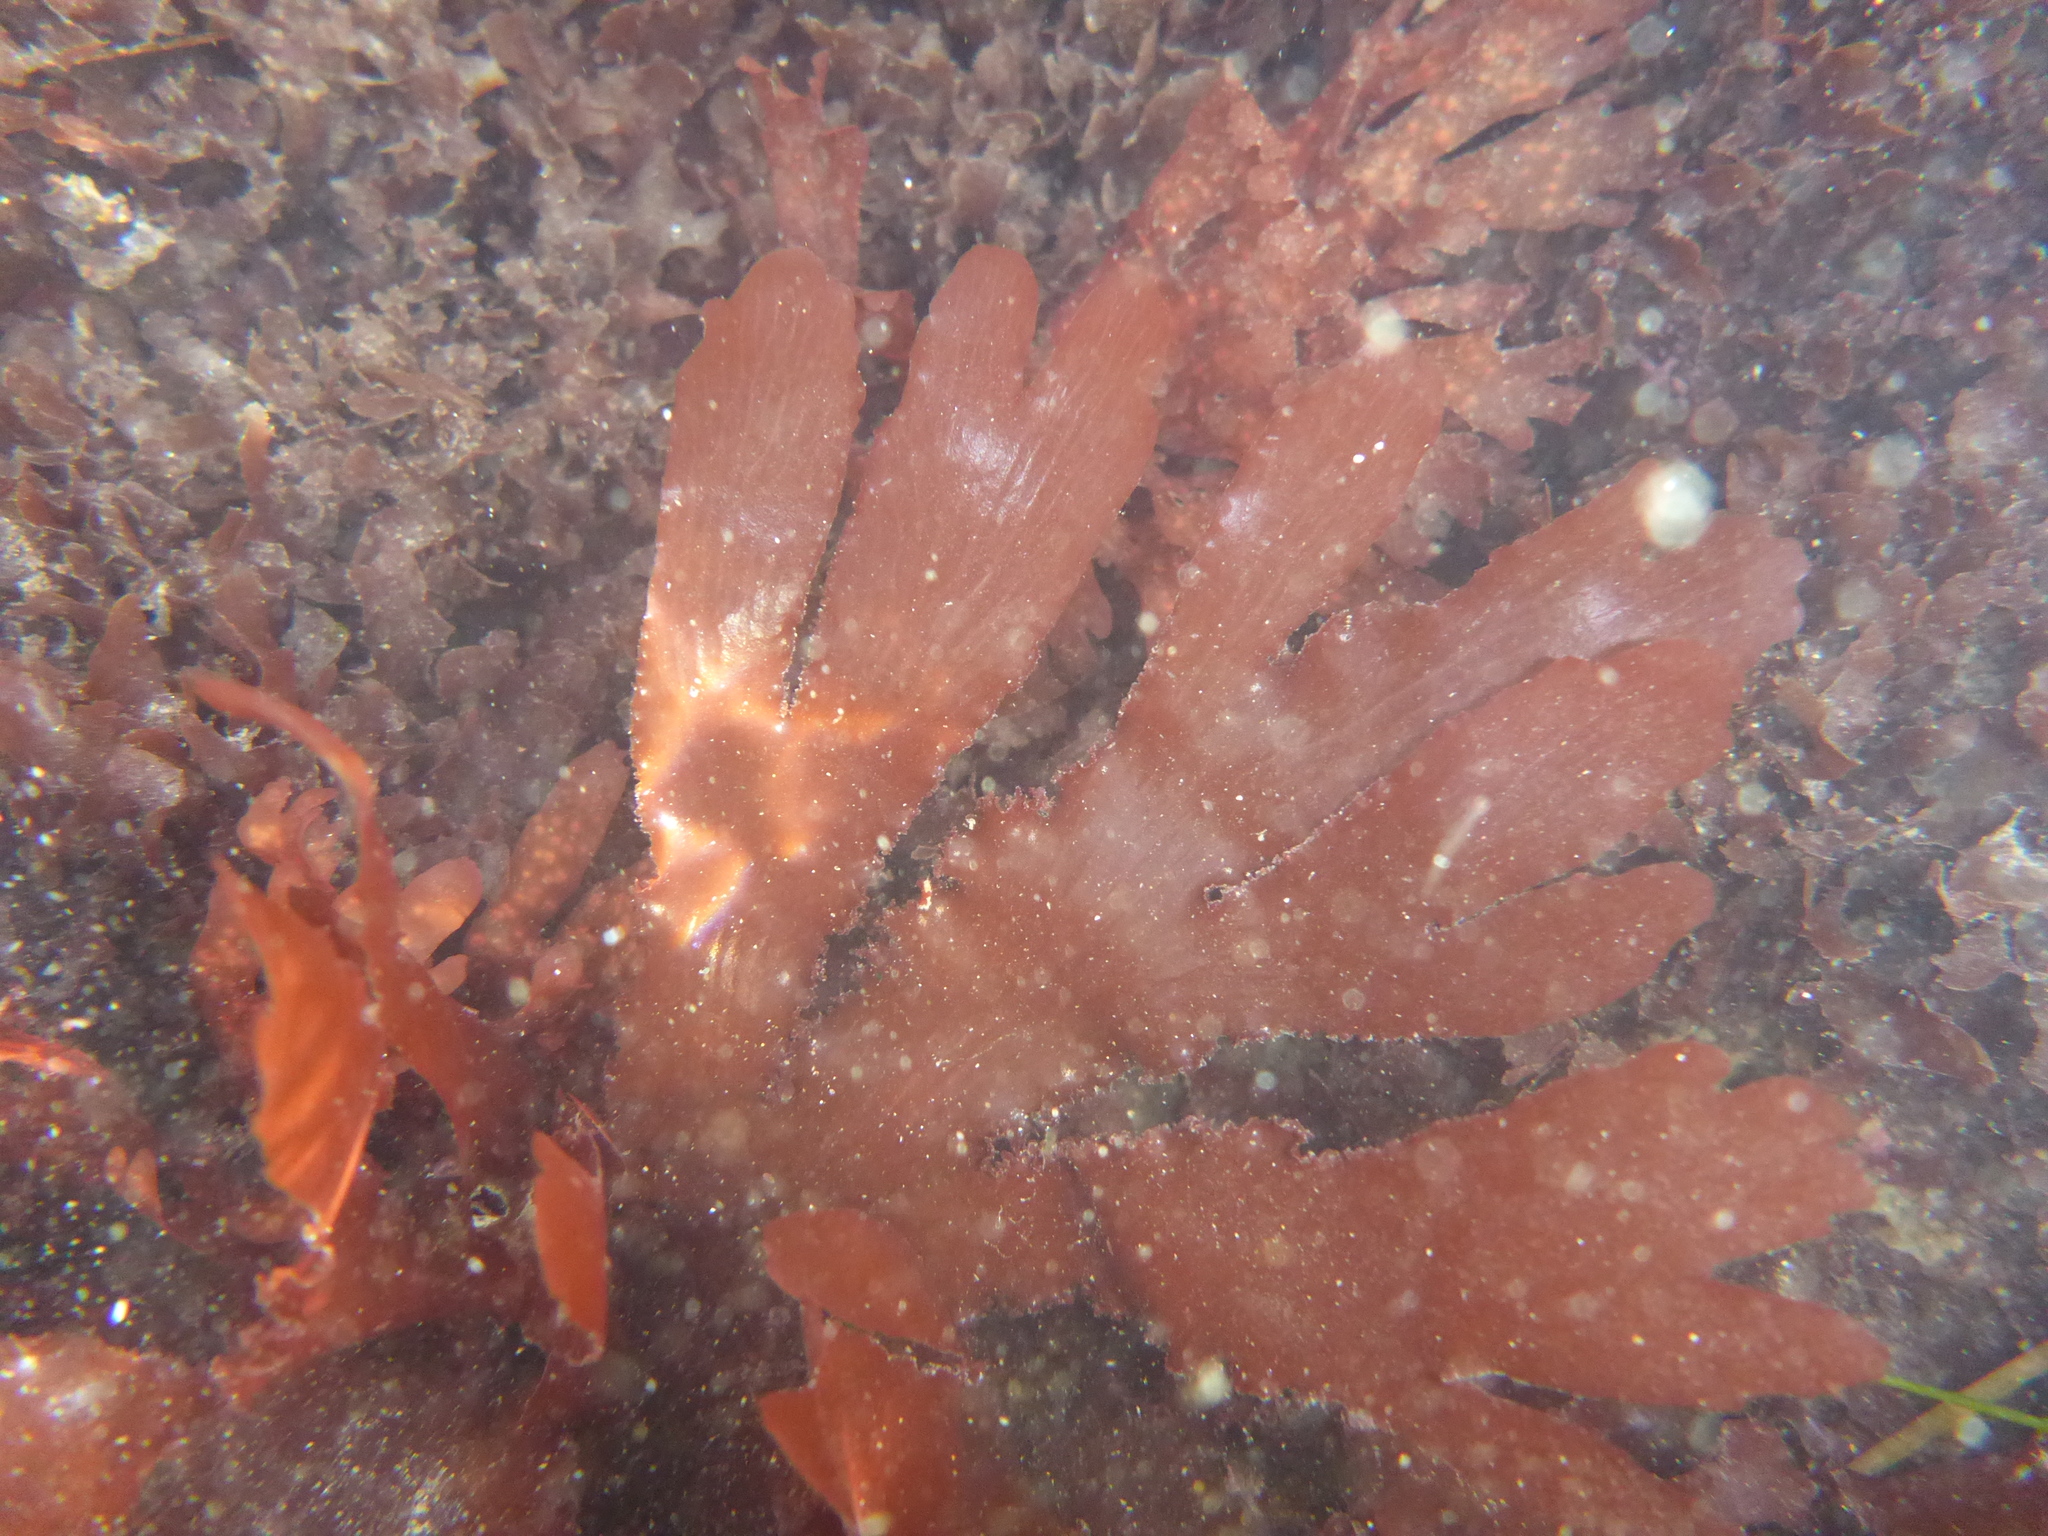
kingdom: Plantae
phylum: Rhodophyta
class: Florideophyceae
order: Ceramiales
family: Delesseriaceae
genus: Cryptopleura
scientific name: Cryptopleura ruprechtiana
